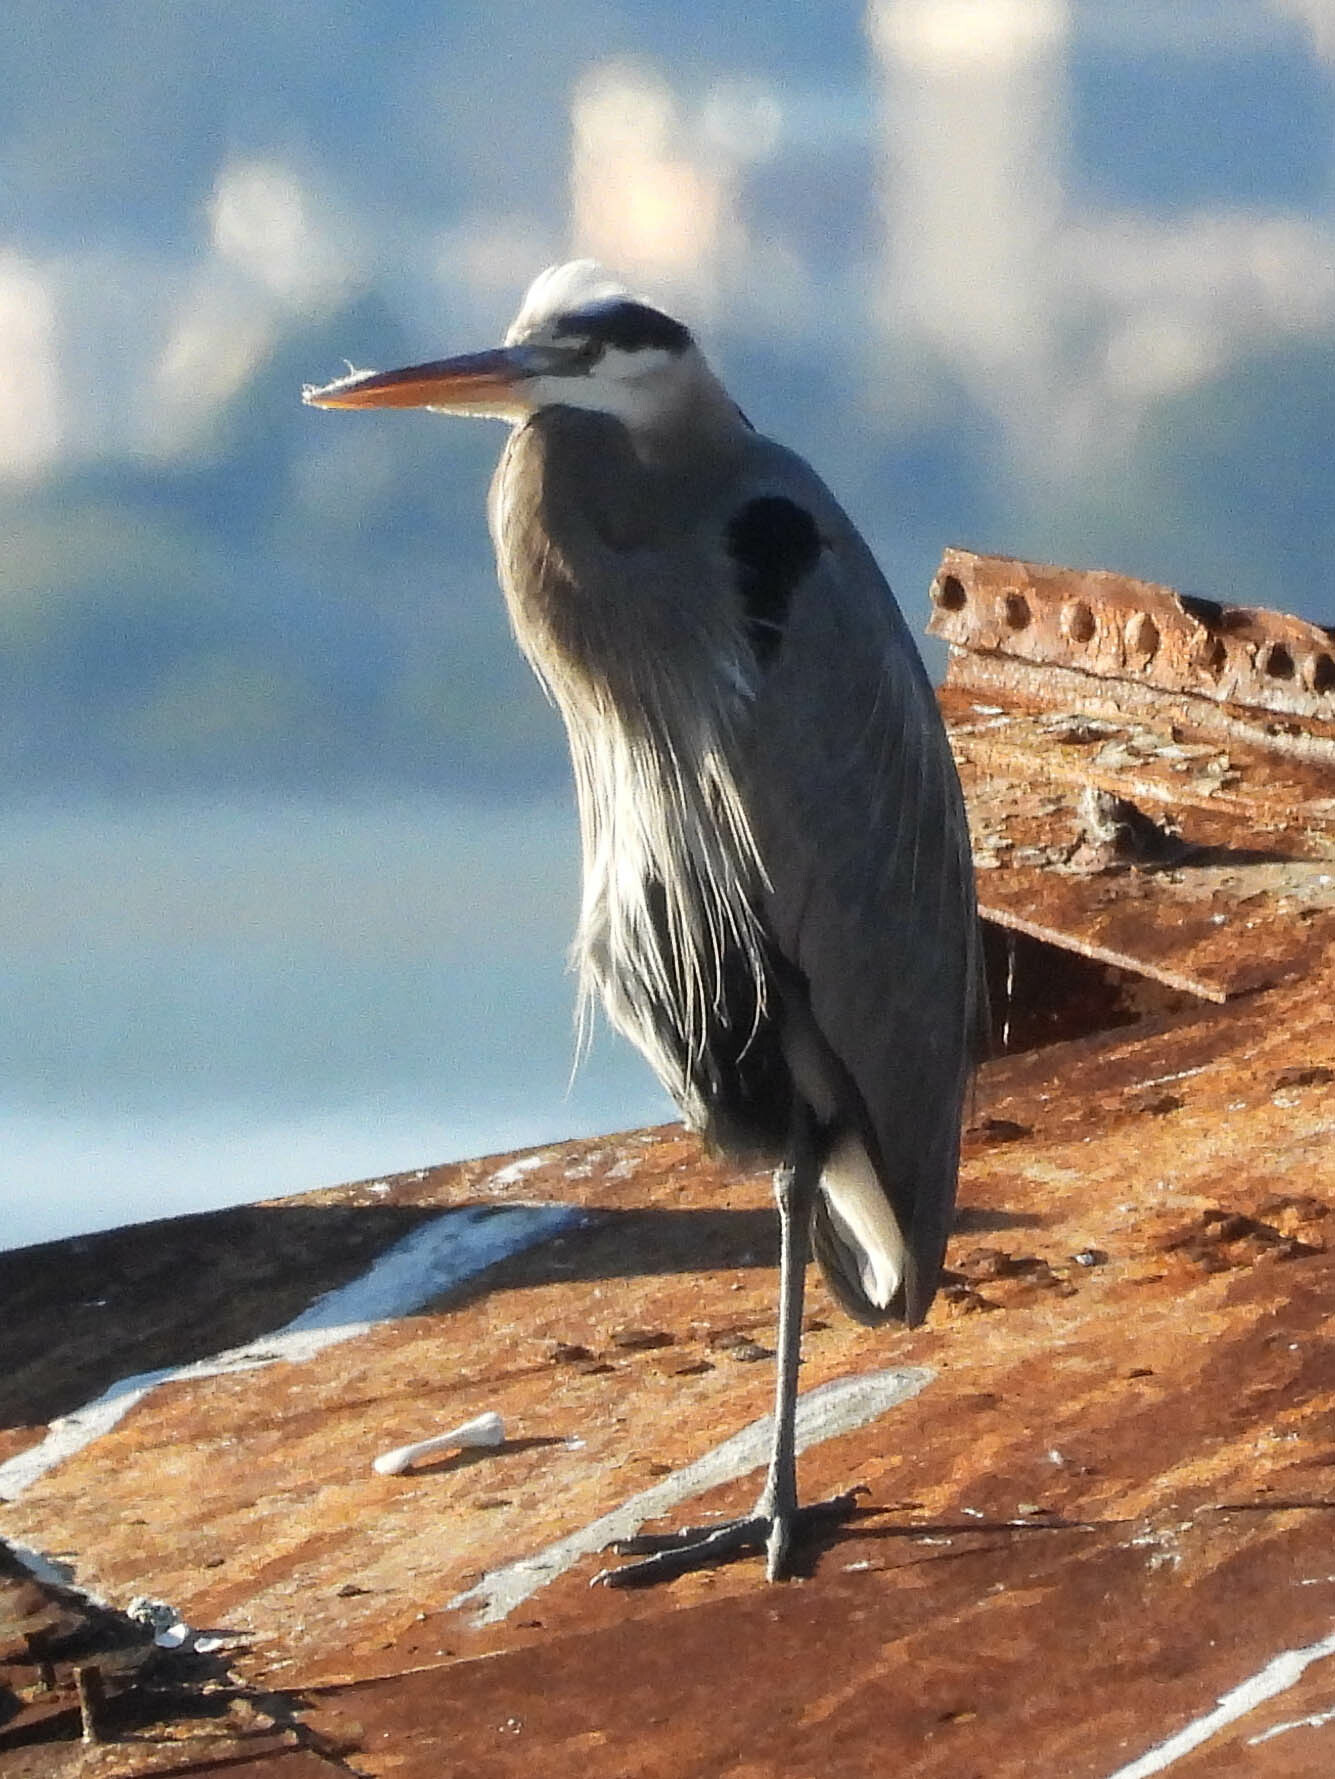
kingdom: Animalia
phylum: Chordata
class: Aves
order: Pelecaniformes
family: Ardeidae
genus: Ardea
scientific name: Ardea herodias
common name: Great blue heron
